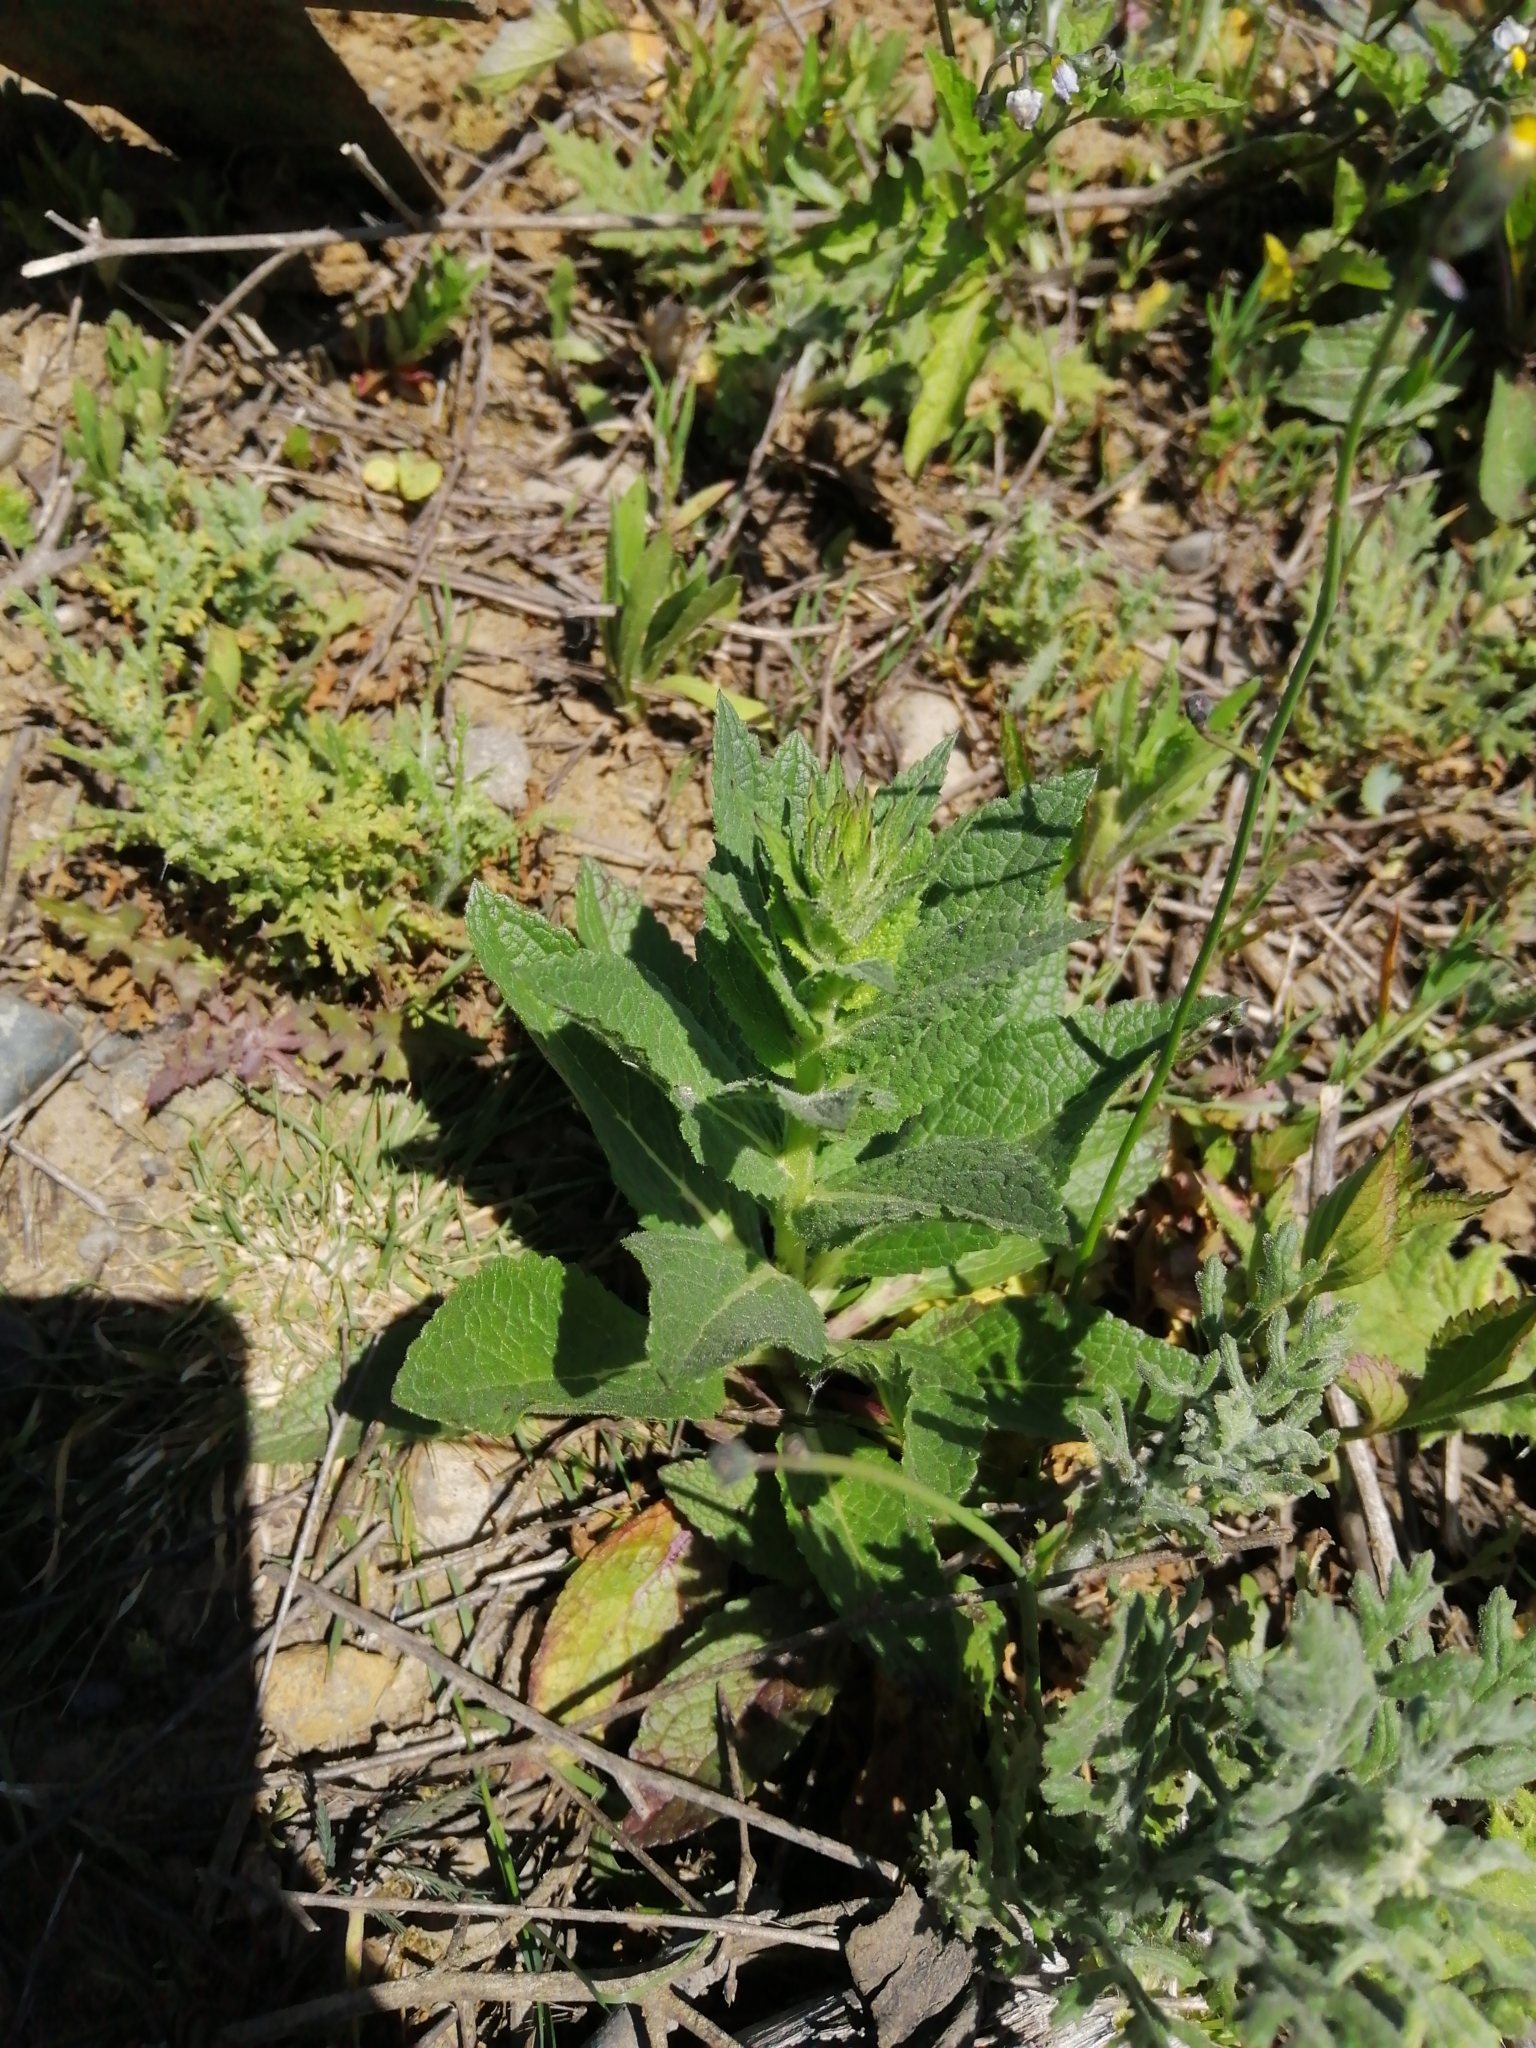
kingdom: Plantae
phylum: Tracheophyta
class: Magnoliopsida
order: Lamiales
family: Scrophulariaceae
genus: Verbascum
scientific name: Verbascum virgatum
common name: Twiggy mullein
